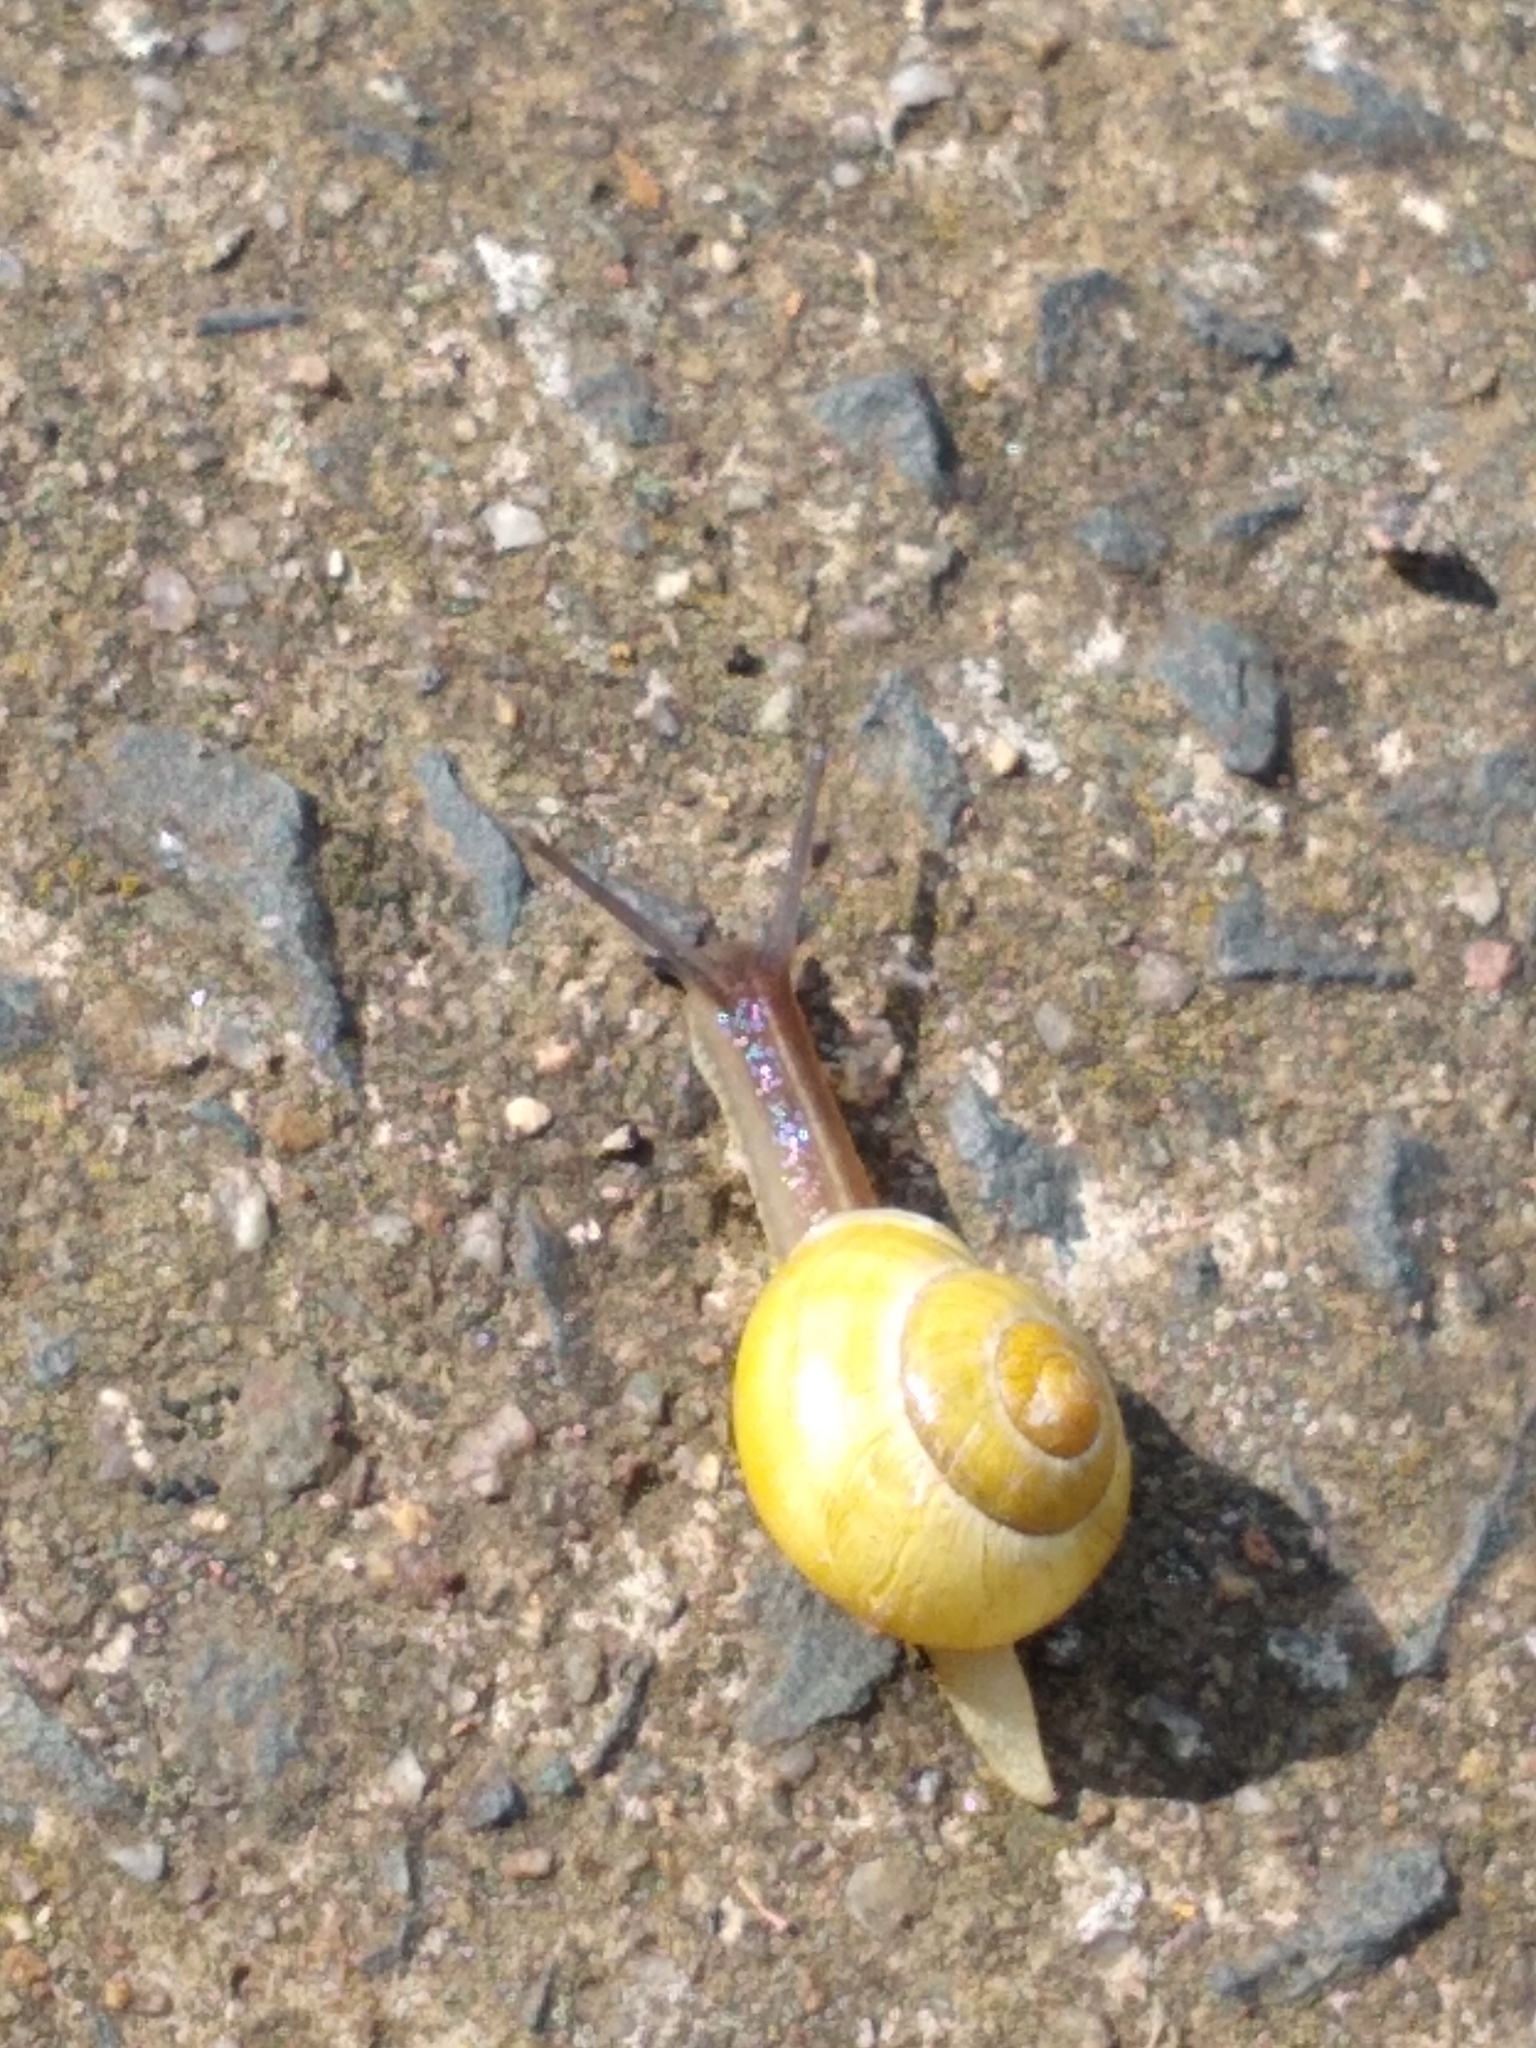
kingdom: Animalia
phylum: Mollusca
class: Gastropoda
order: Stylommatophora
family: Helicidae
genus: Cepaea
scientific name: Cepaea hortensis
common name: White-lip gardensnail
